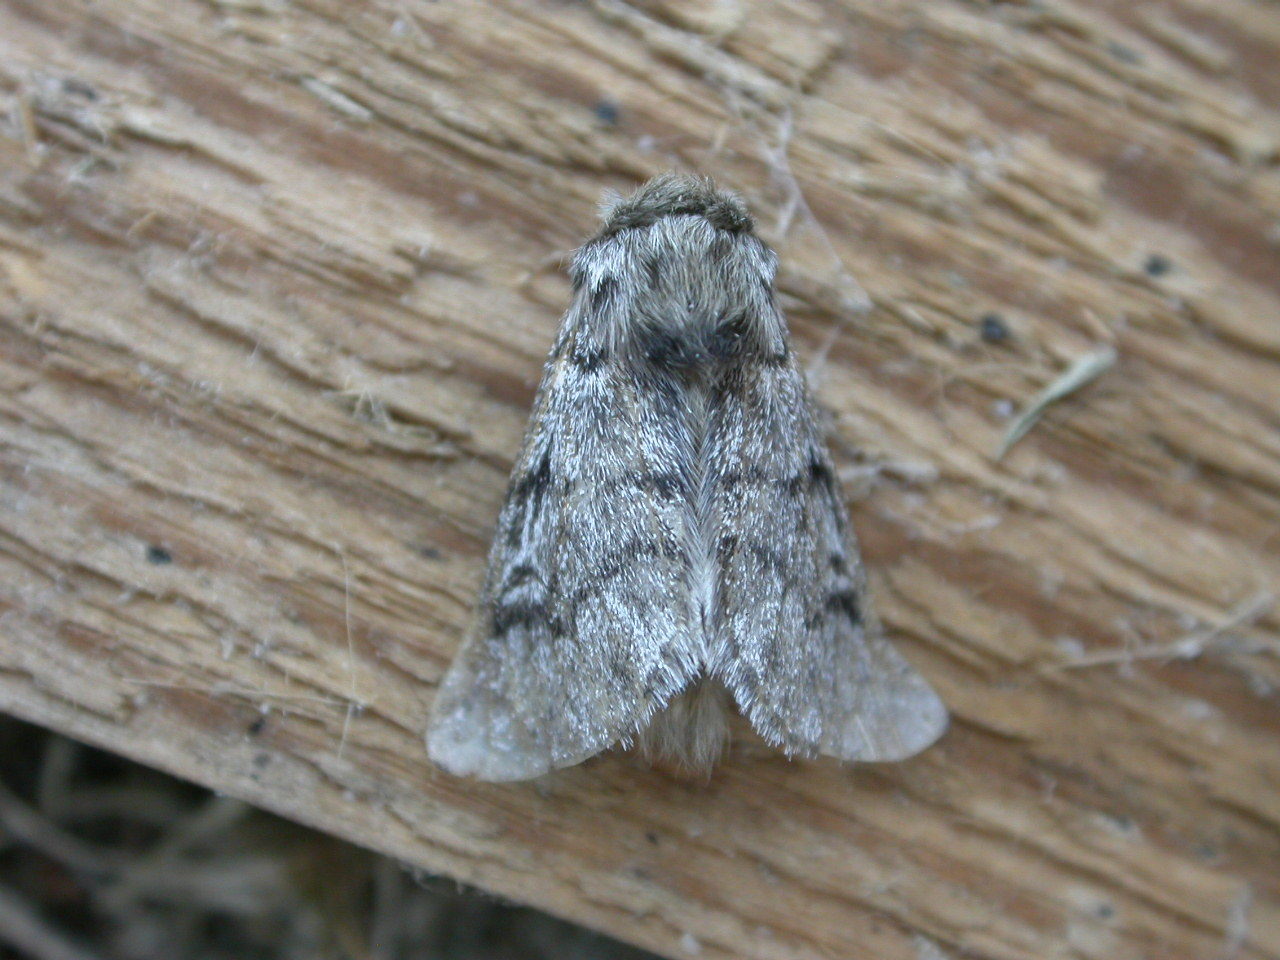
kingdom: Animalia
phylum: Arthropoda
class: Insecta
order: Lepidoptera
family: Notodontidae
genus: Thaumetopoea
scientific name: Thaumetopoea pityocampa
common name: Pine processionary
